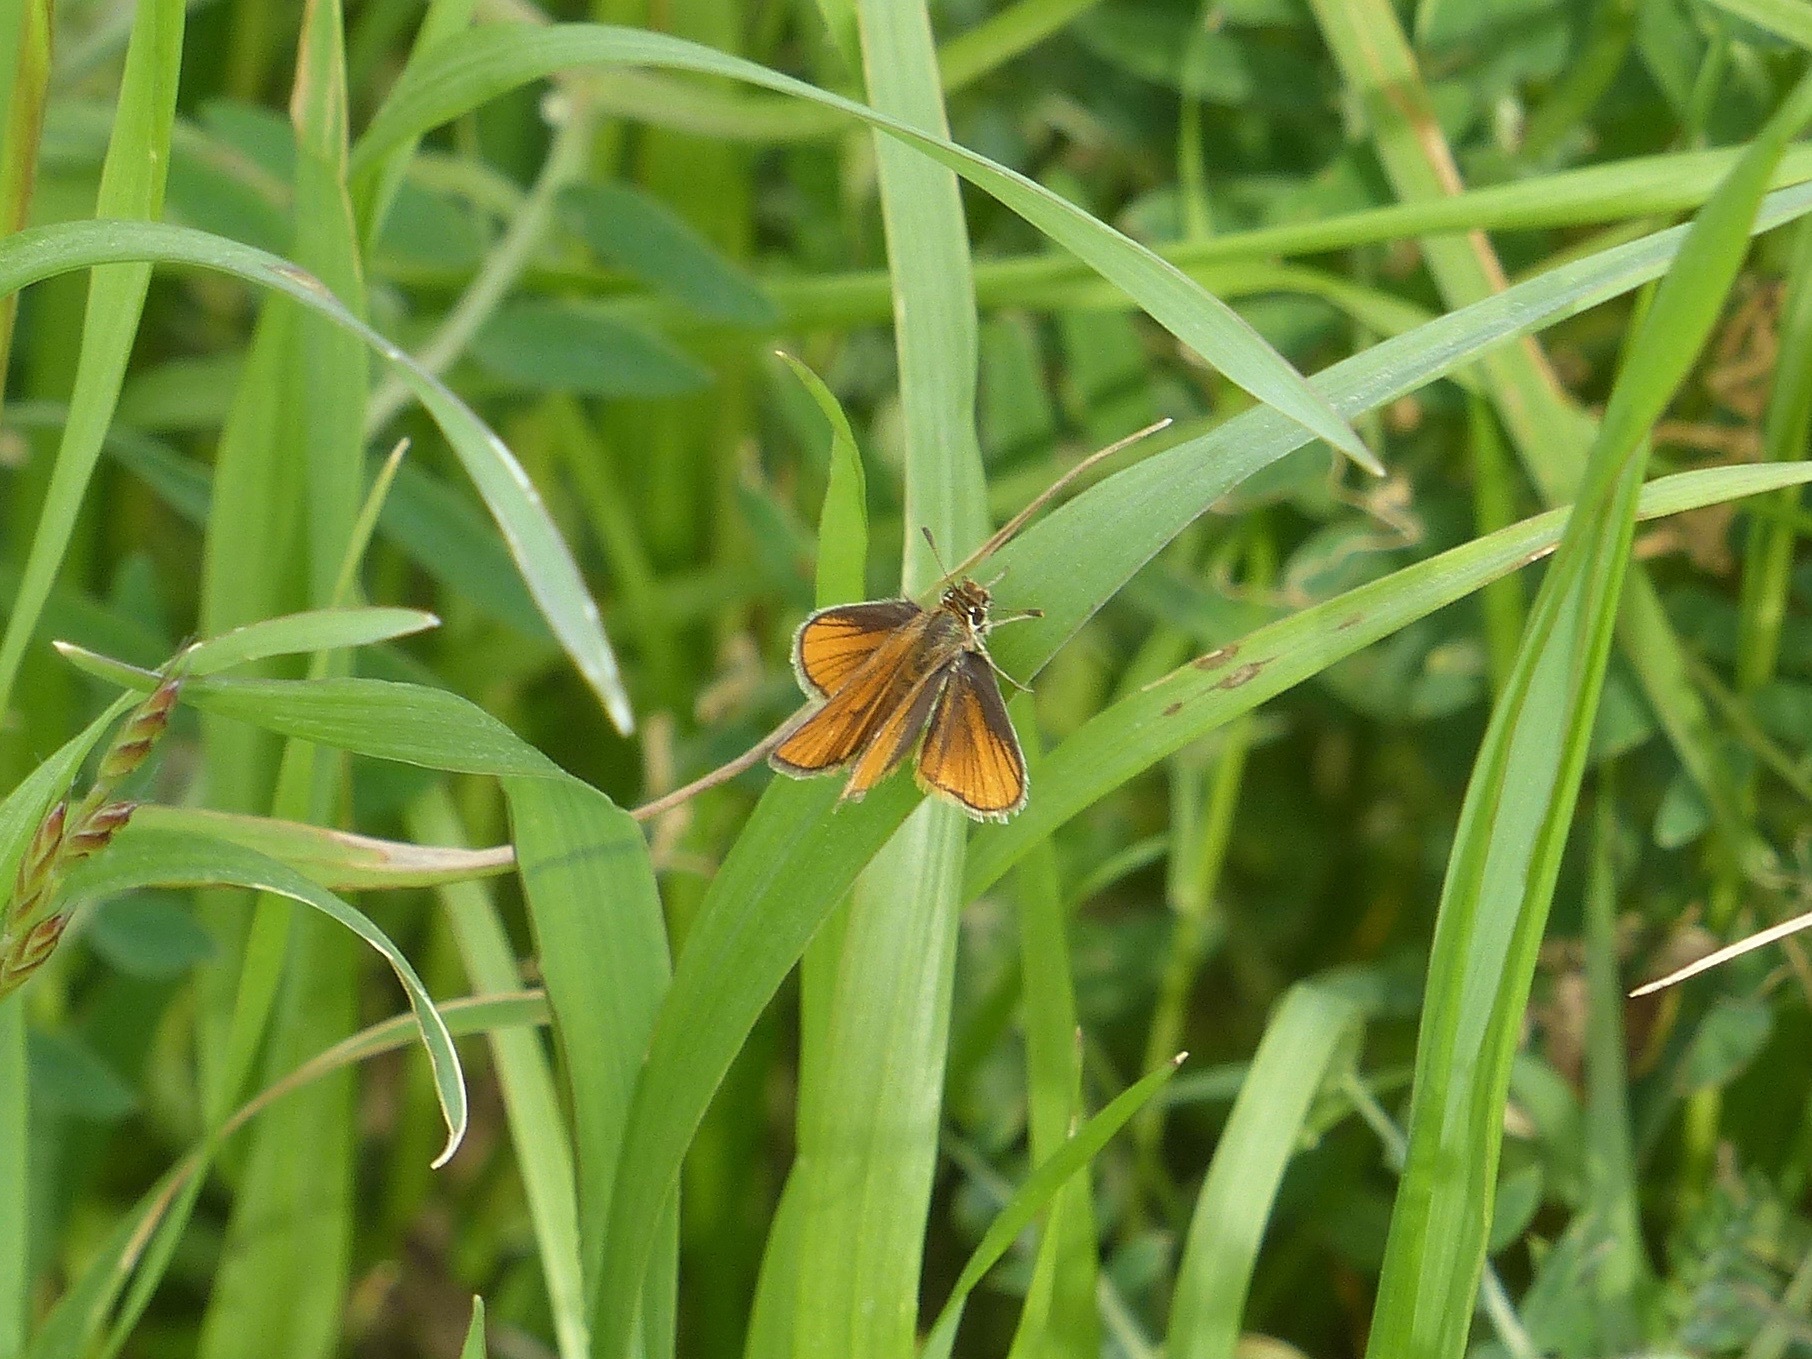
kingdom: Animalia
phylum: Arthropoda
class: Insecta
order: Lepidoptera
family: Hesperiidae
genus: Copaeodes
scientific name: Copaeodes minima
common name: Southern skipperling
